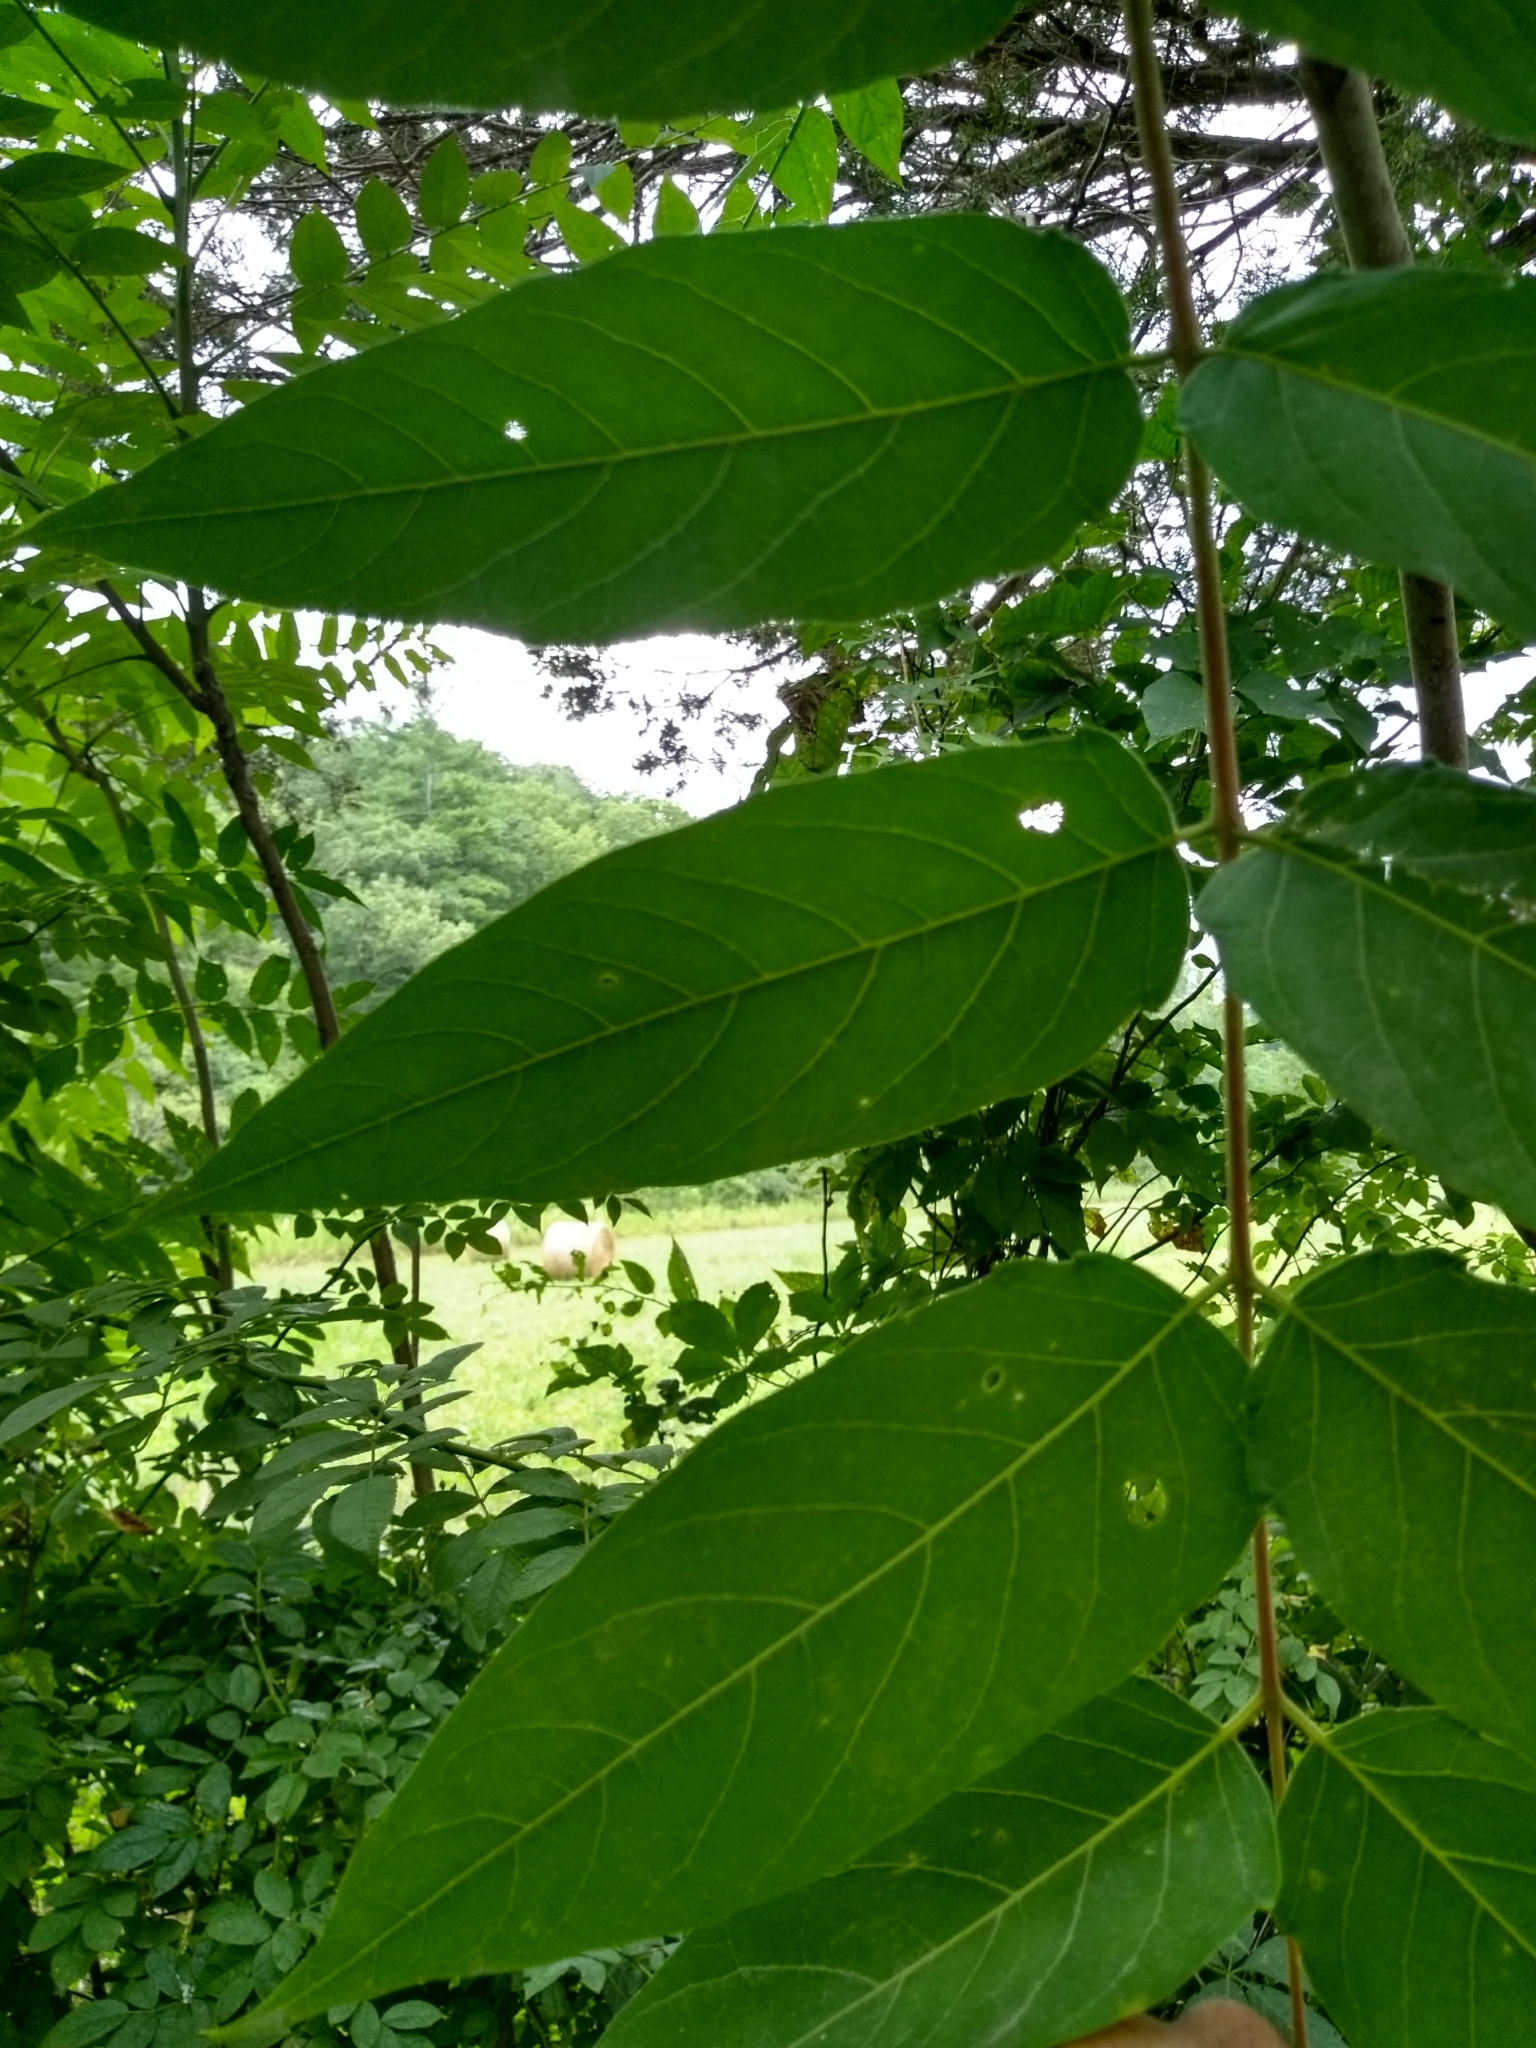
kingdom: Plantae
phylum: Tracheophyta
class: Magnoliopsida
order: Sapindales
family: Simaroubaceae
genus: Ailanthus
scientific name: Ailanthus altissima
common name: Tree-of-heaven
